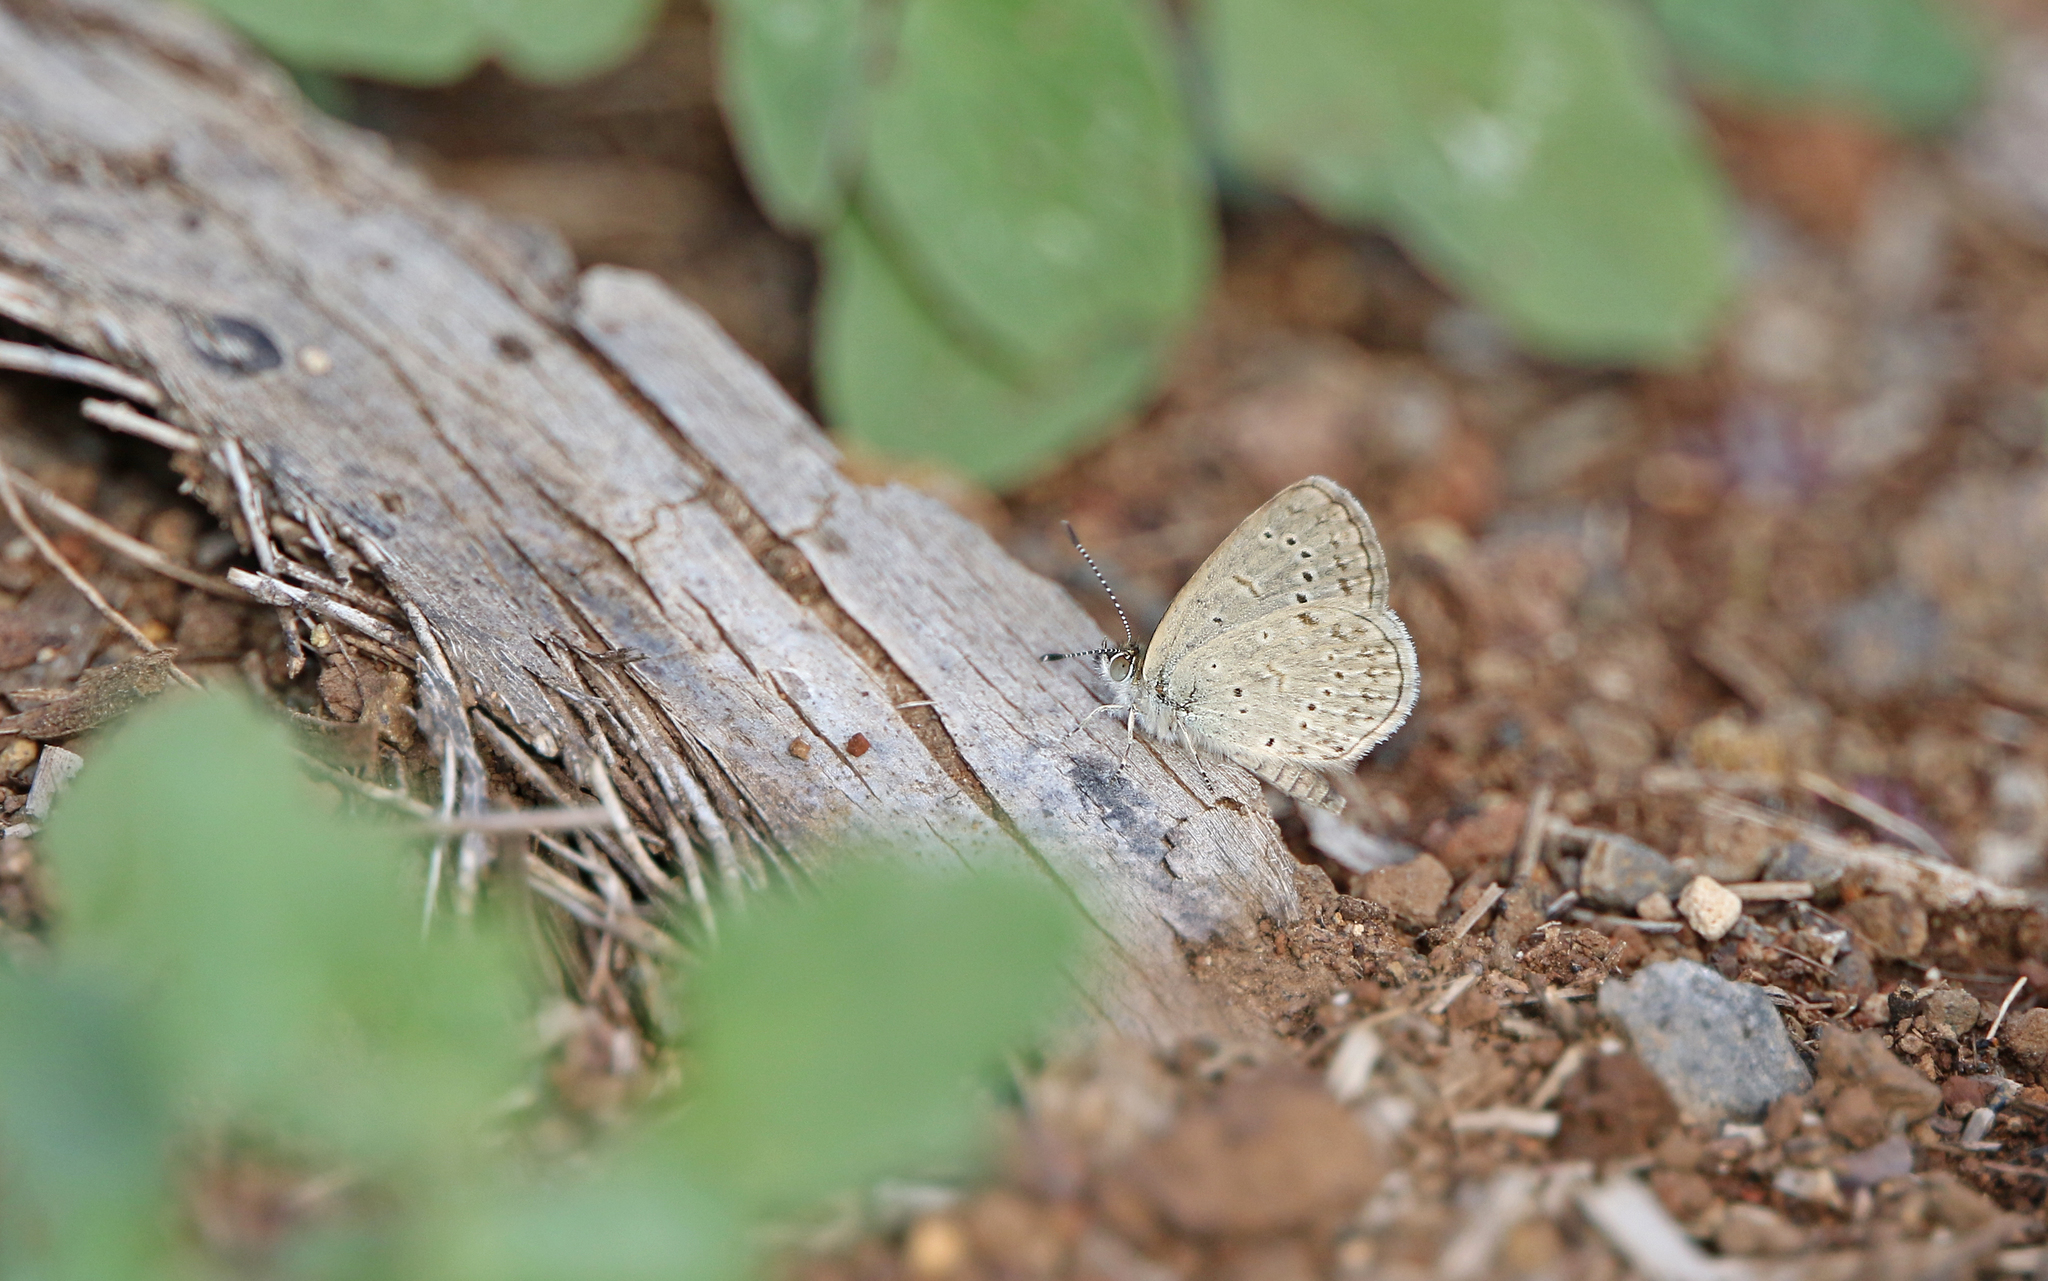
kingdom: Animalia
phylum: Arthropoda
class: Insecta
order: Lepidoptera
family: Lycaenidae
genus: Zizeeria
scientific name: Zizeeria knysna
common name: African grass blue
